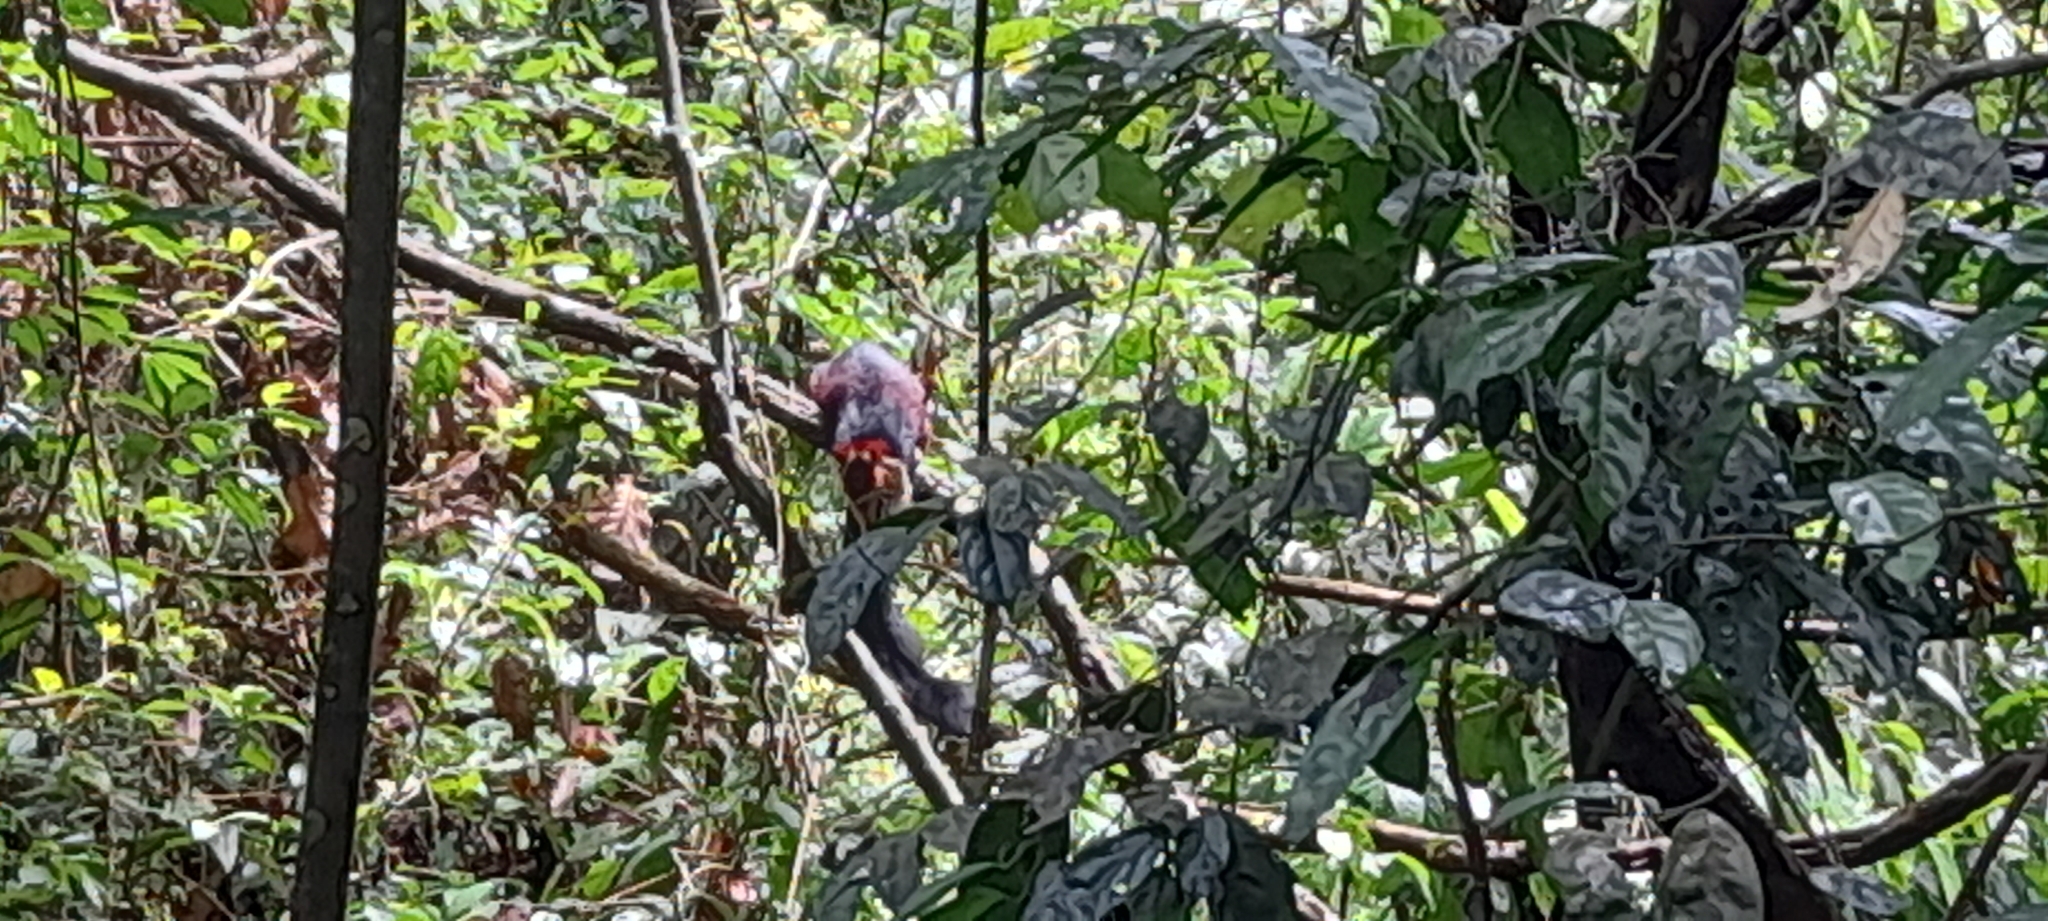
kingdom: Animalia
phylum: Chordata
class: Mammalia
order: Rodentia
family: Sciuridae
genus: Ratufa
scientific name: Ratufa indica
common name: Indian giant squirrel
